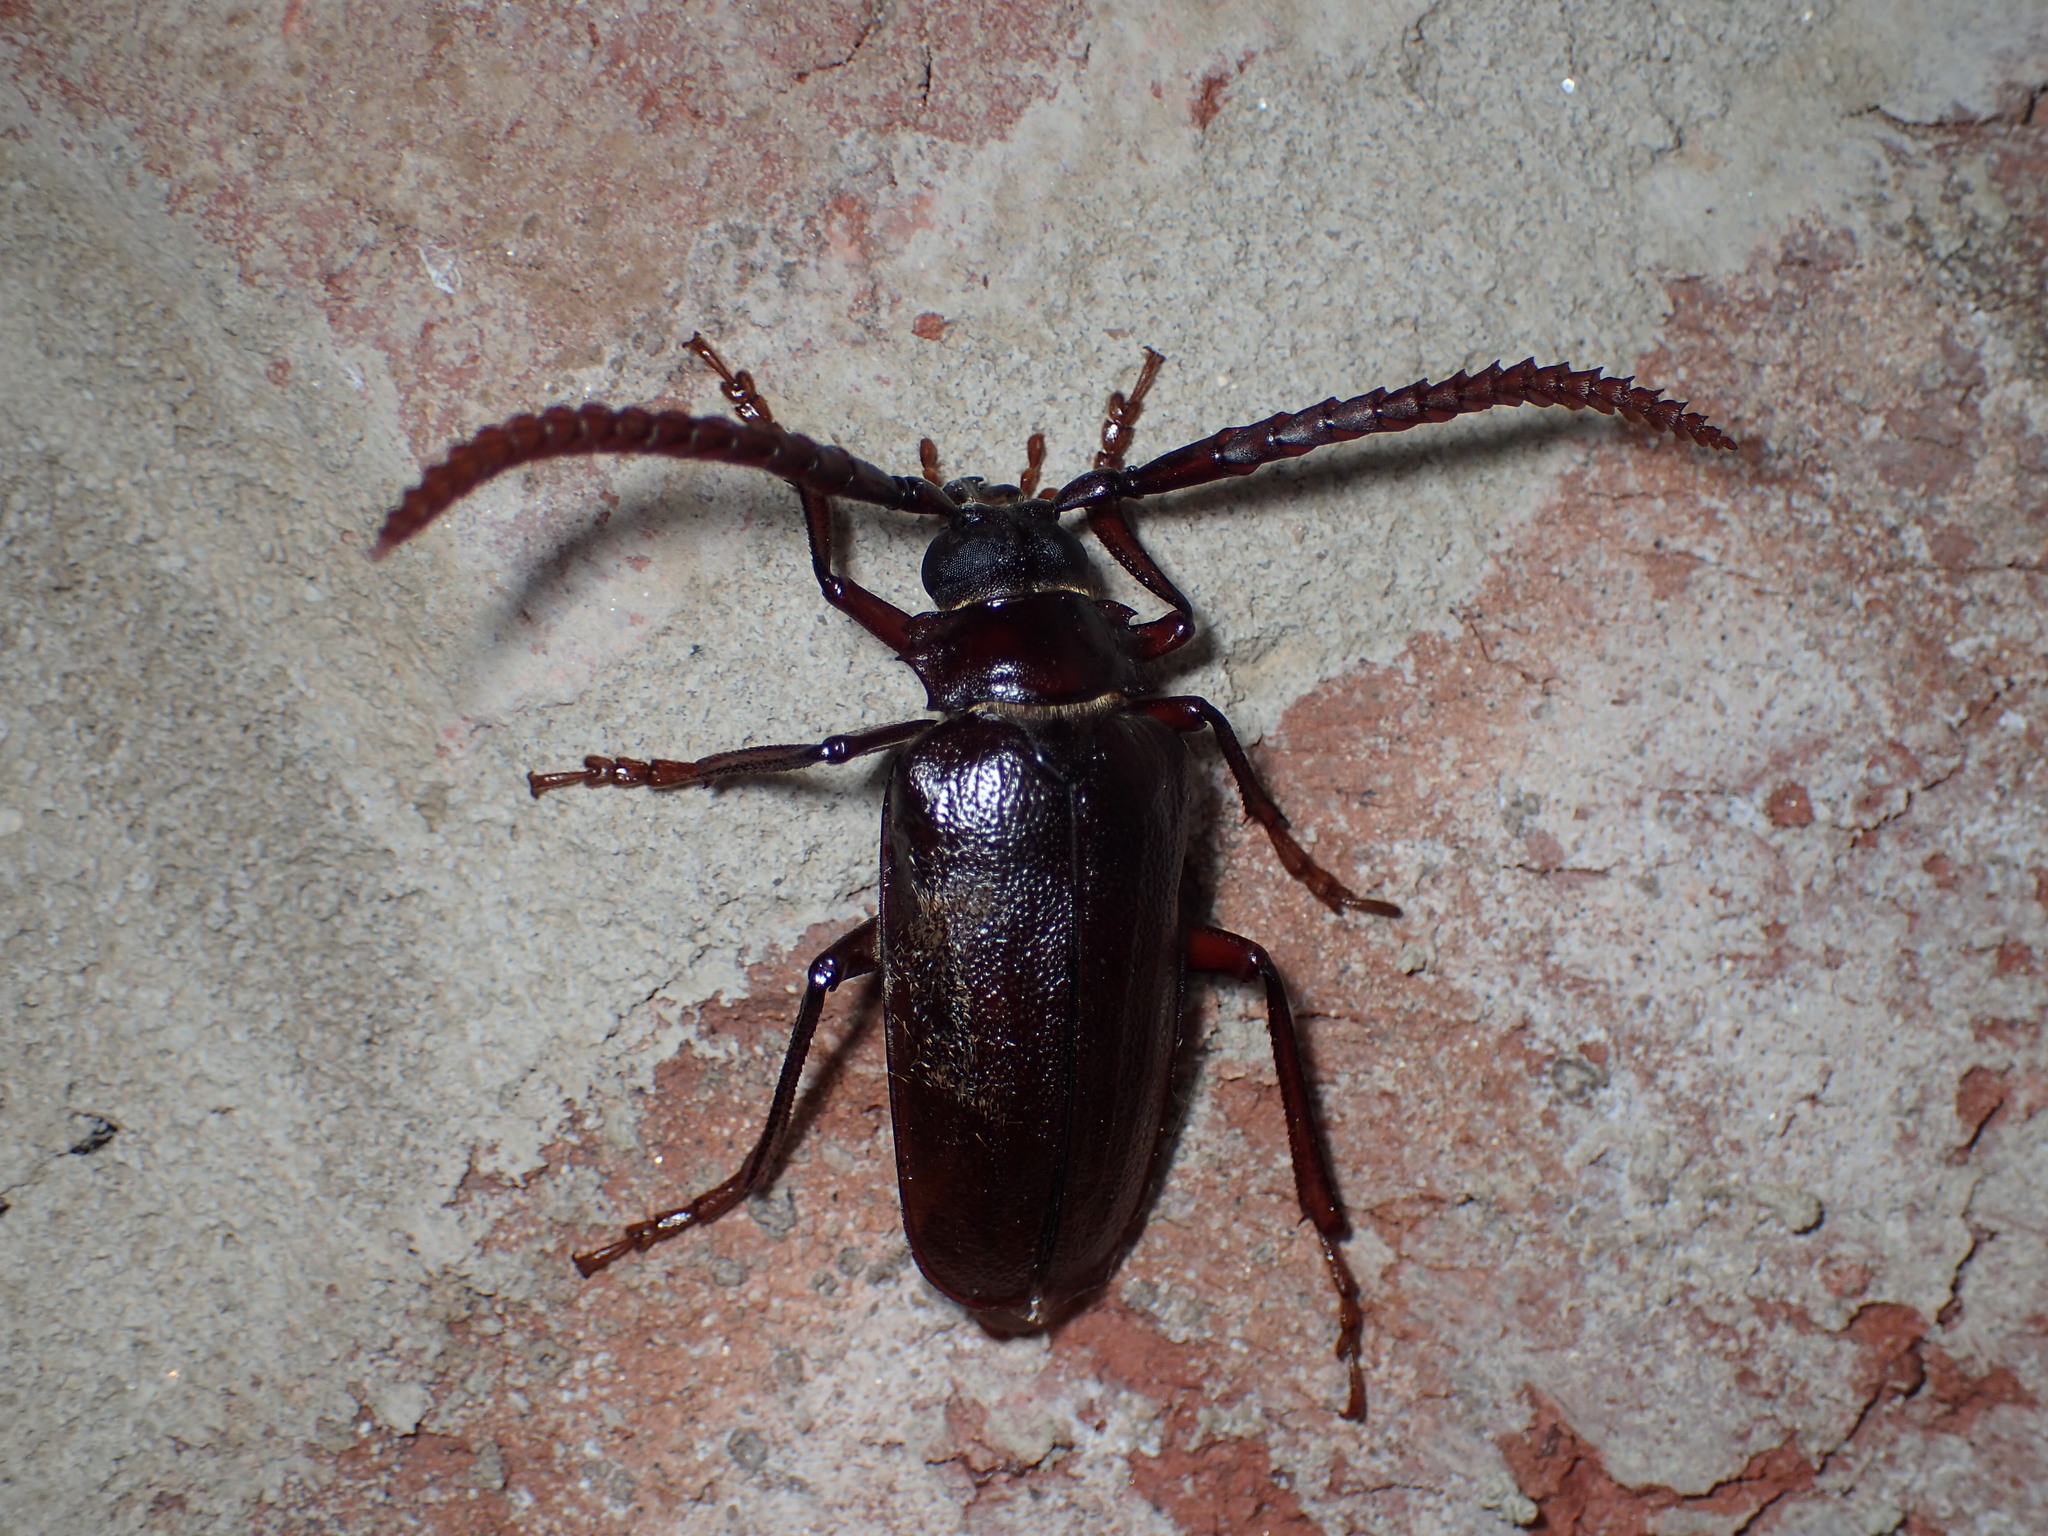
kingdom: Animalia
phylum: Arthropoda
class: Insecta
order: Coleoptera
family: Cerambycidae
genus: Prionus
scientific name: Prionus imbricornis
